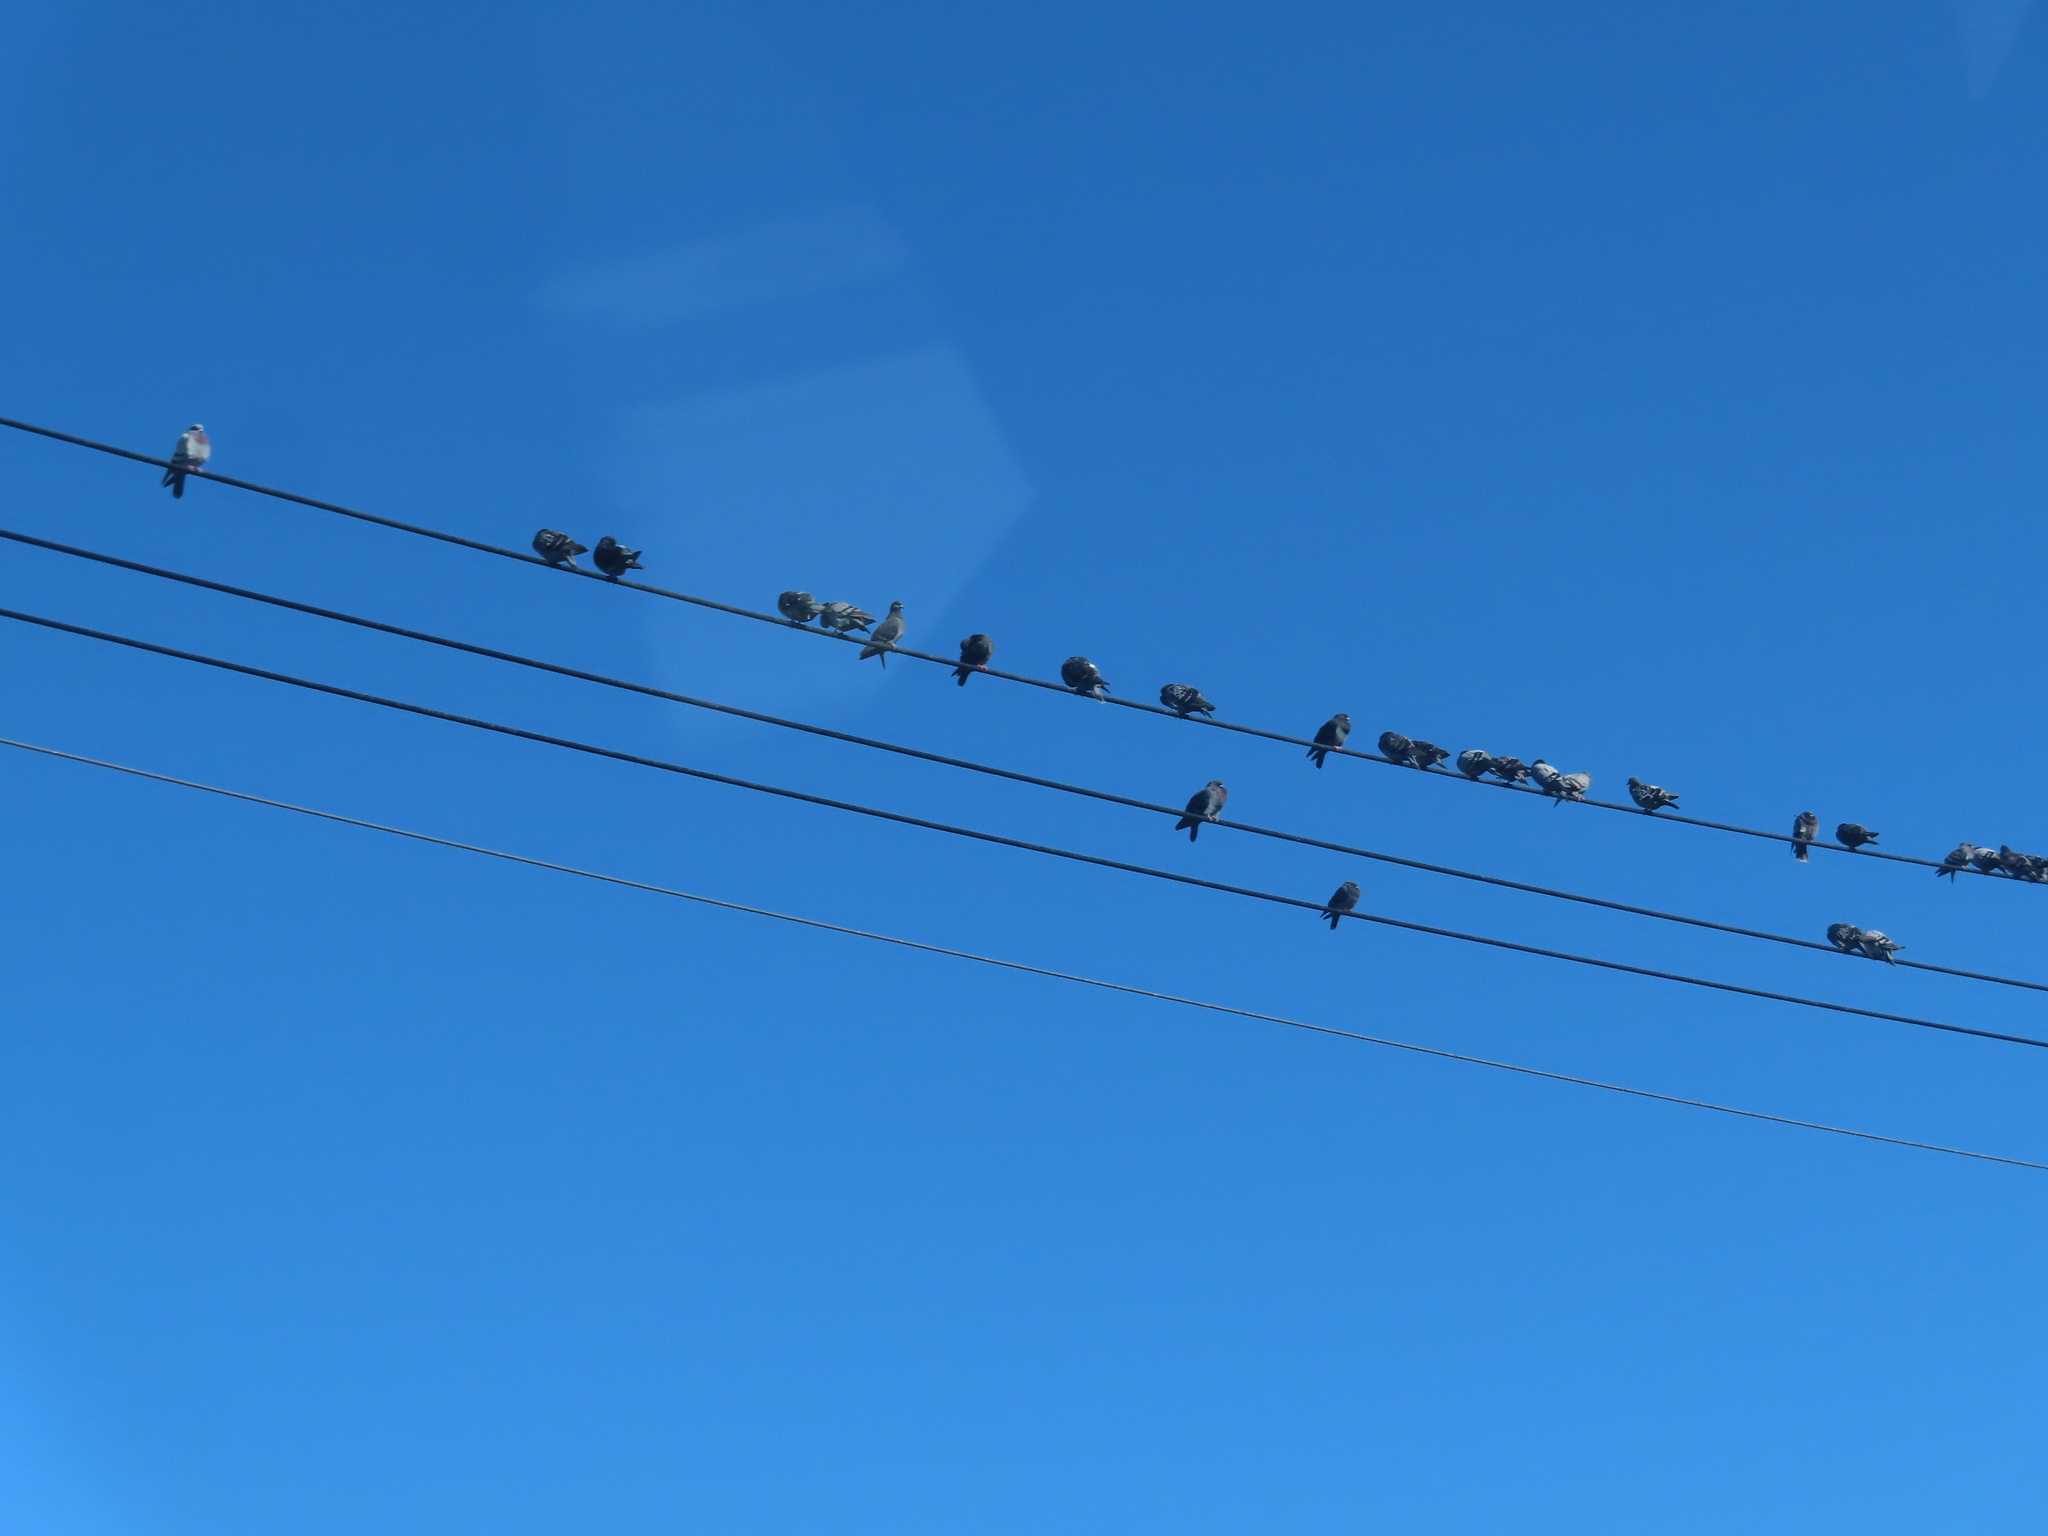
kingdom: Animalia
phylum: Chordata
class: Aves
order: Columbiformes
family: Columbidae
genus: Columba
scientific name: Columba livia
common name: Rock pigeon
